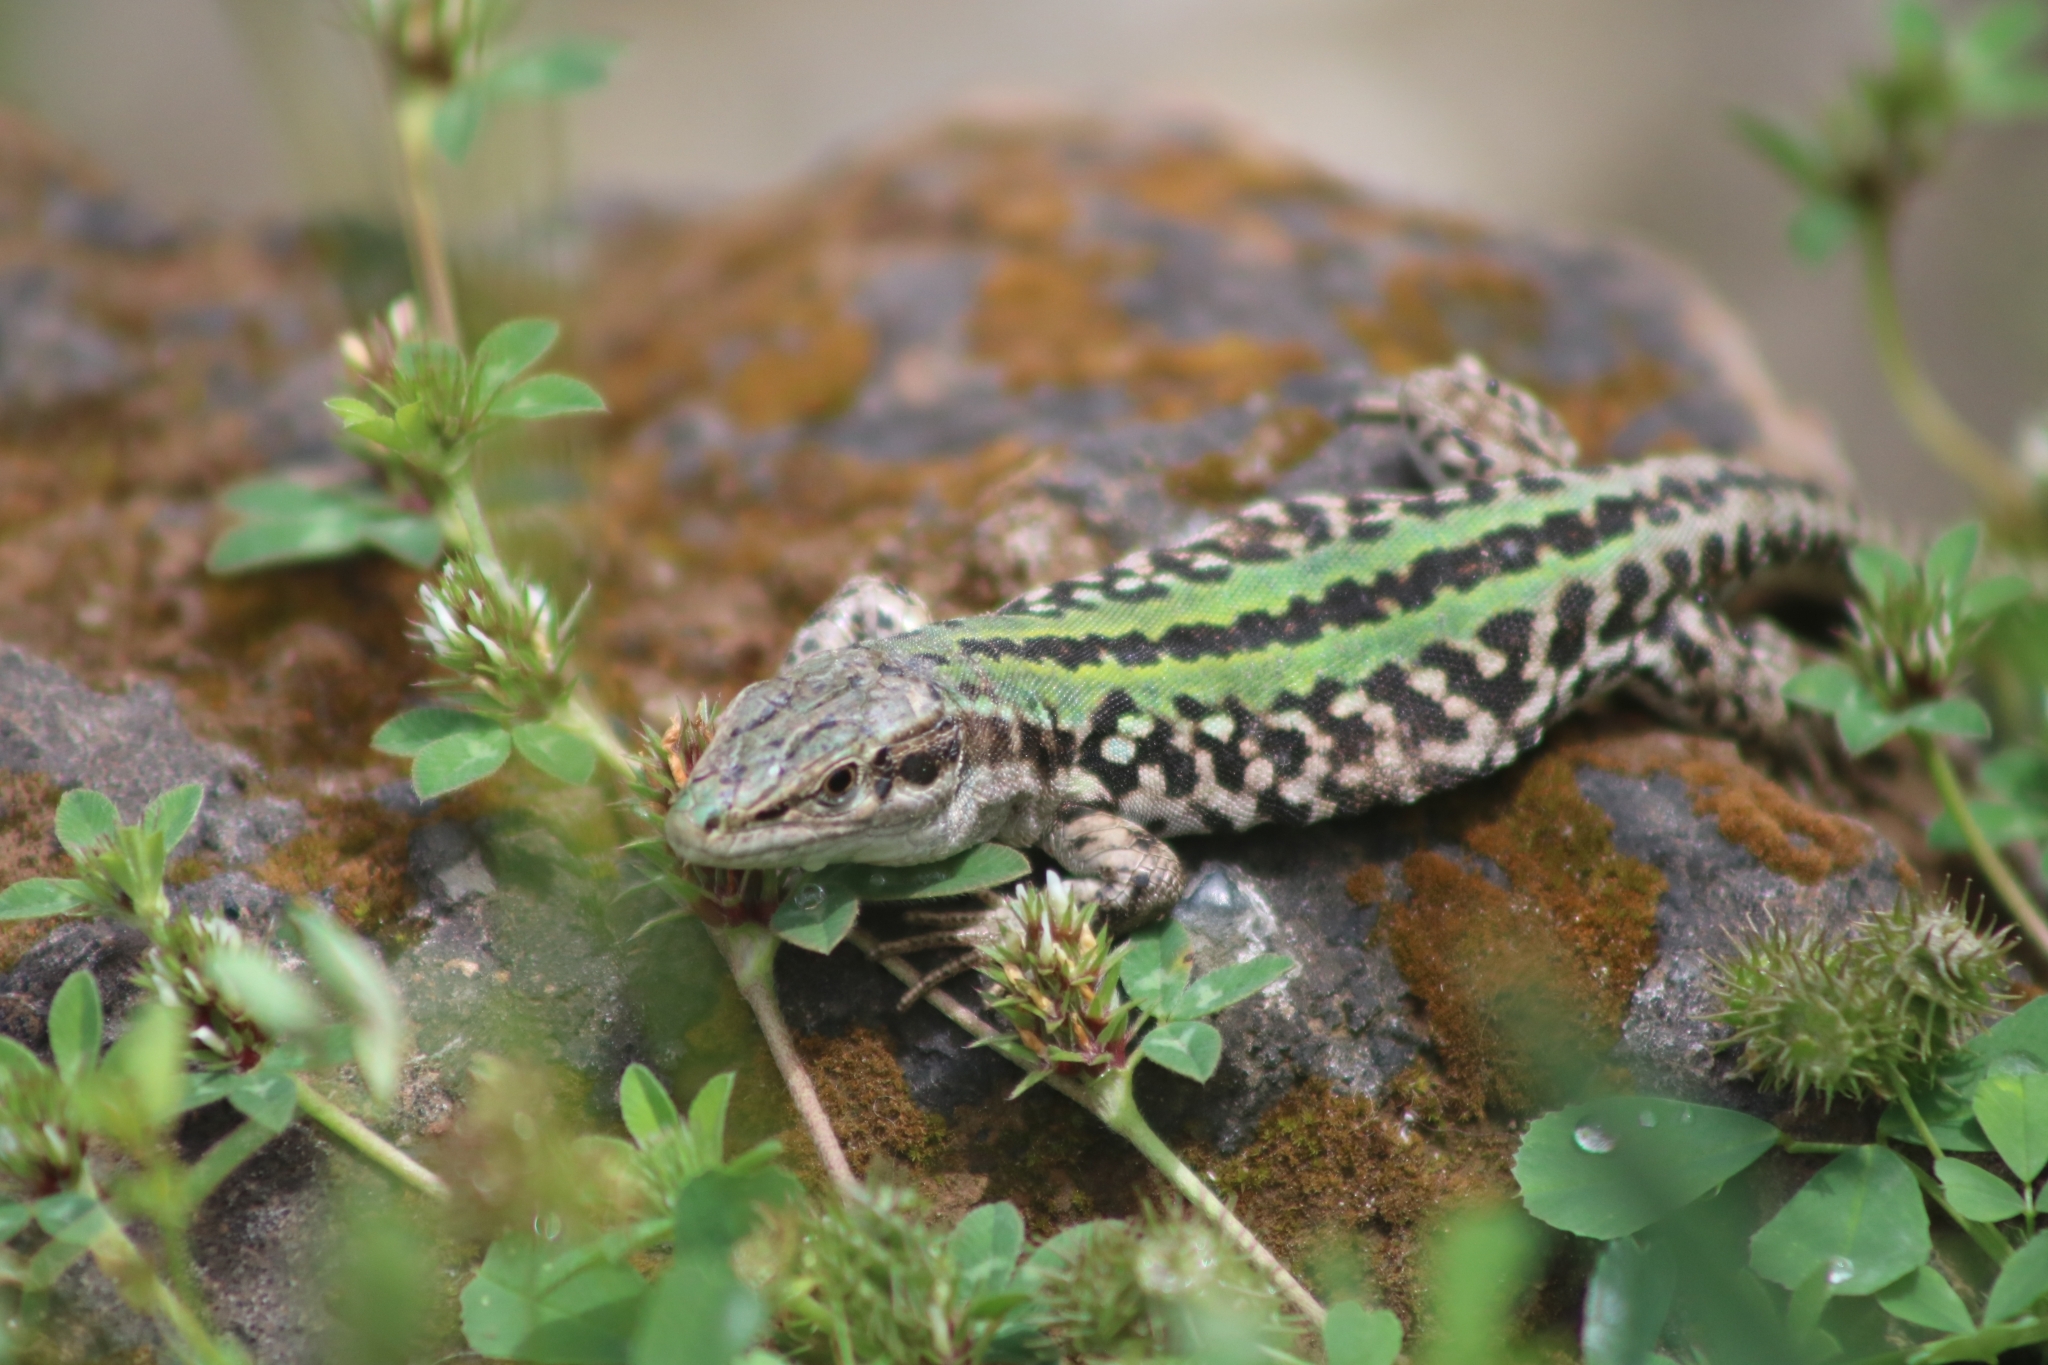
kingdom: Animalia
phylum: Chordata
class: Squamata
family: Lacertidae
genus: Podarcis
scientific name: Podarcis siculus
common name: Italian wall lizard
